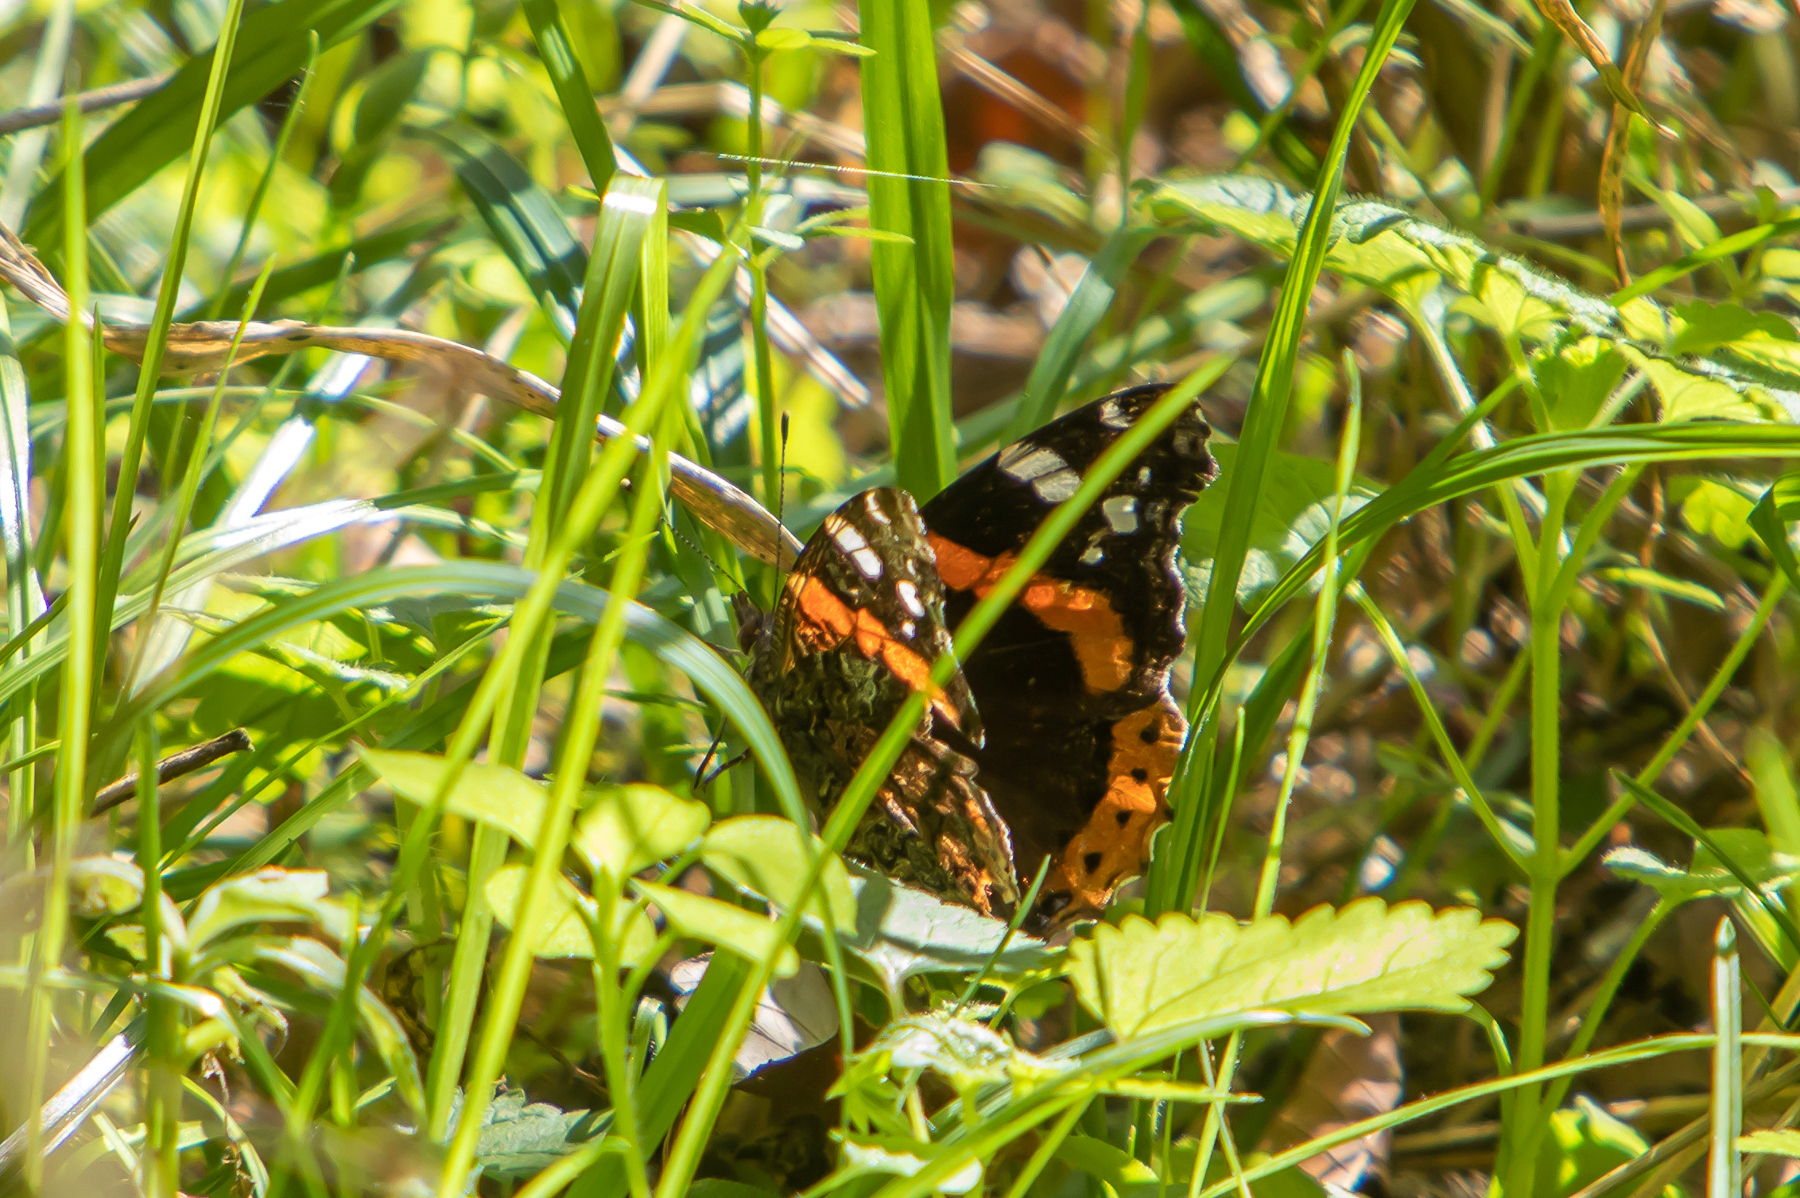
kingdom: Animalia
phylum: Arthropoda
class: Insecta
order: Lepidoptera
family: Nymphalidae
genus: Vanessa
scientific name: Vanessa atalanta
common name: Red admiral
